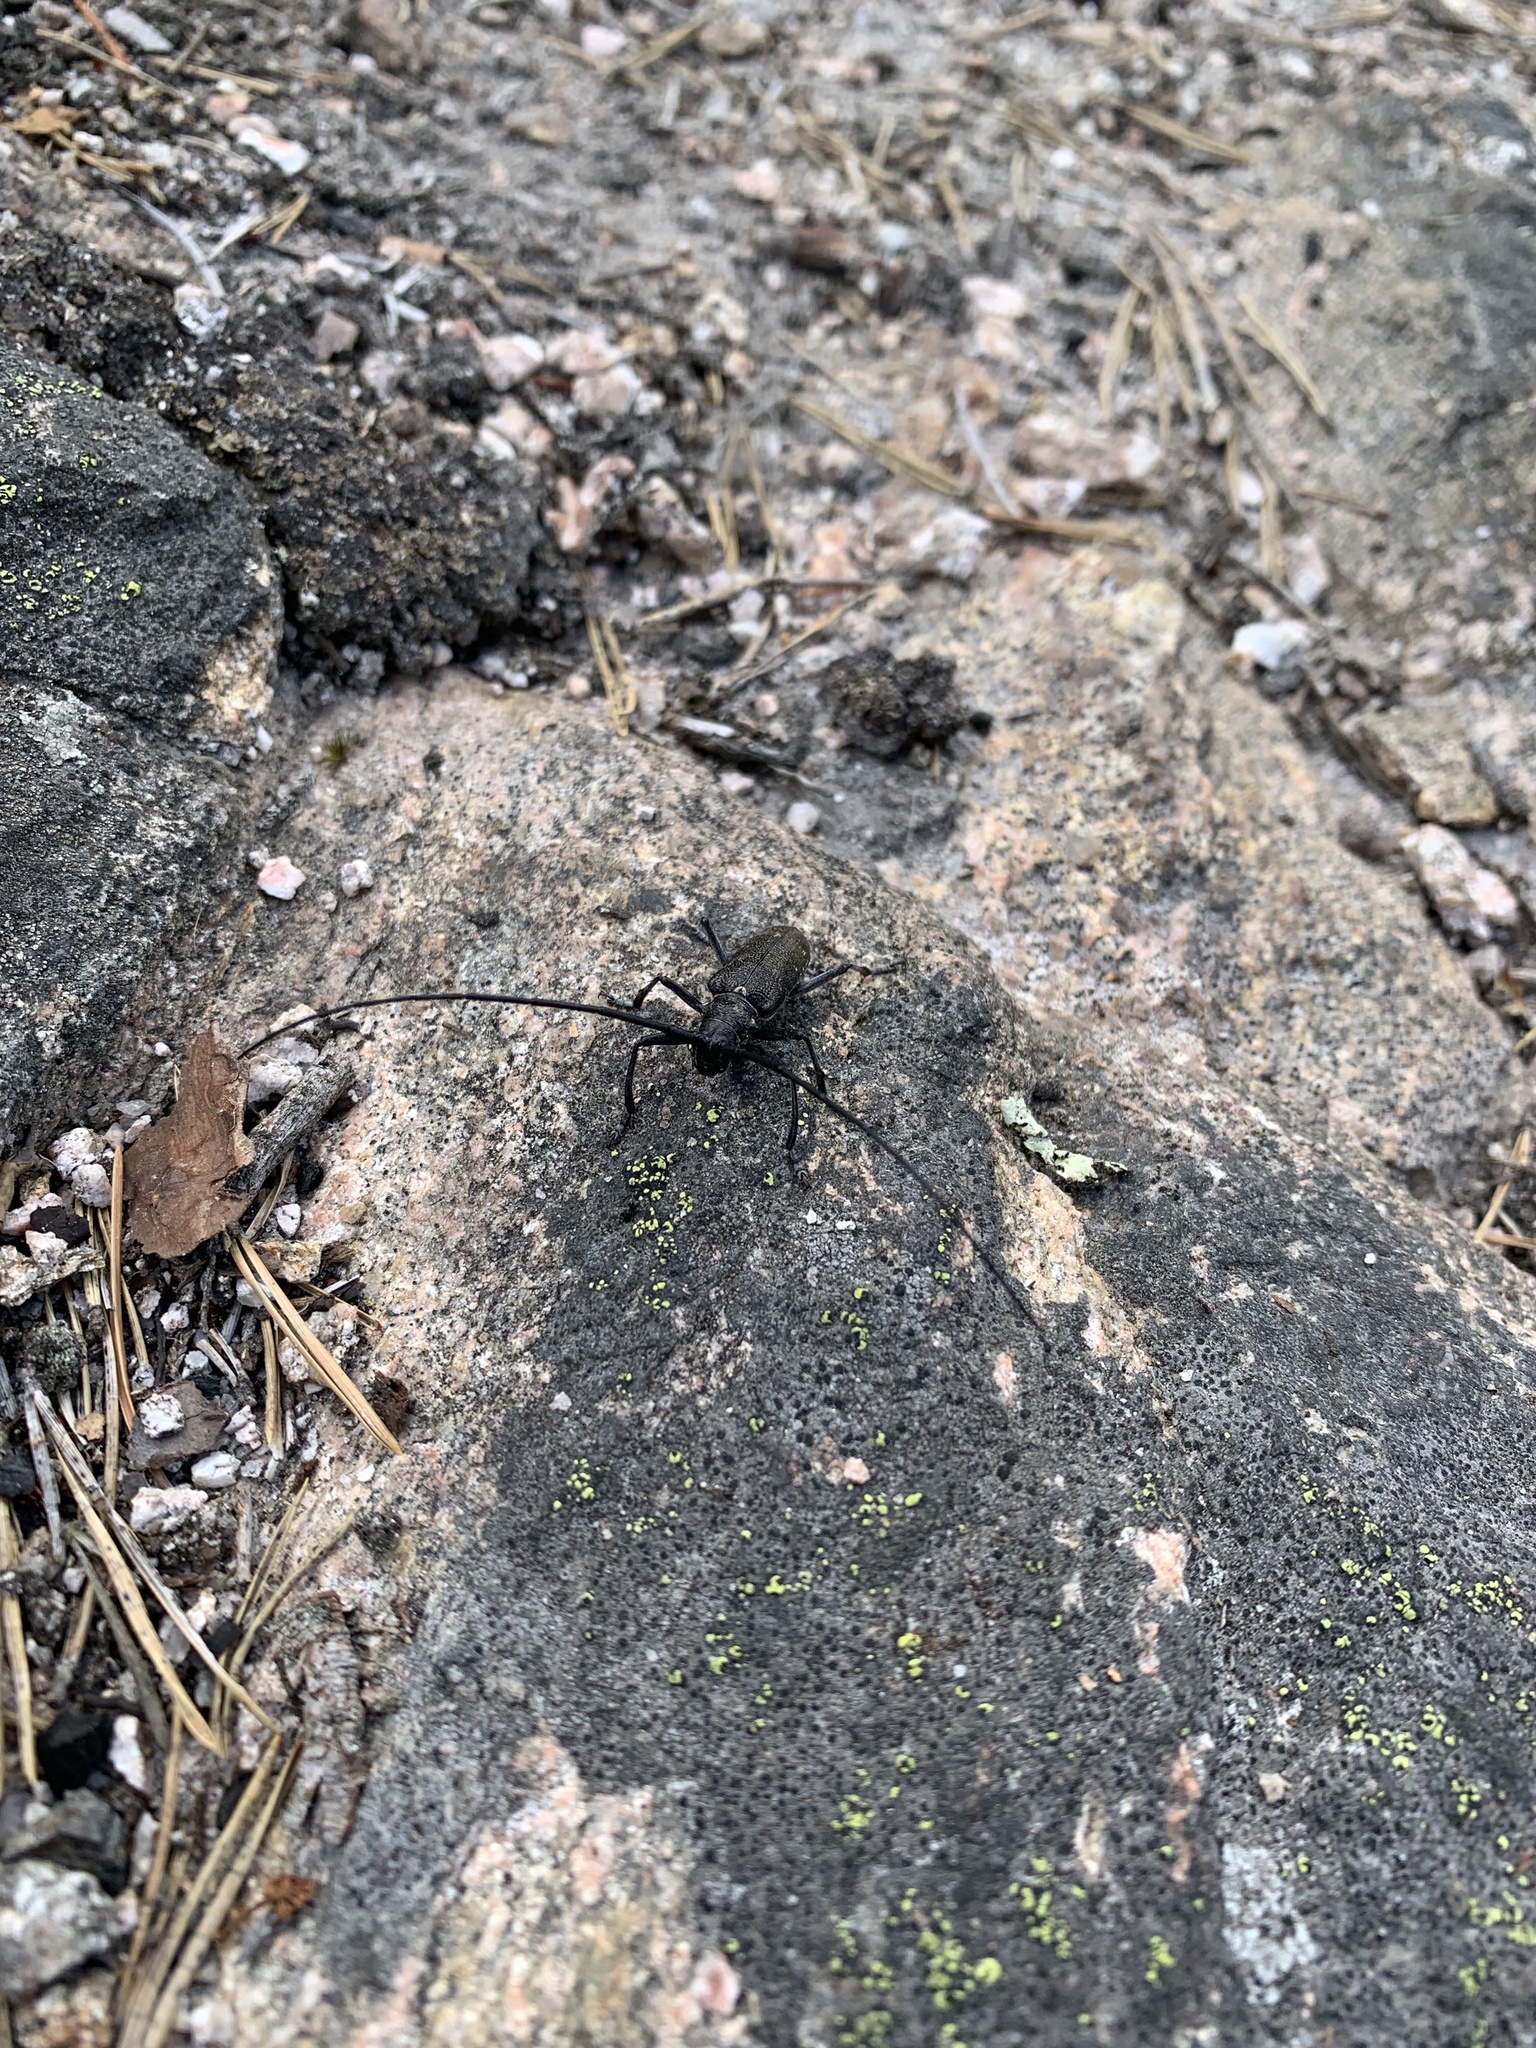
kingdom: Animalia
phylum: Arthropoda
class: Insecta
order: Coleoptera
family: Cerambycidae
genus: Monochamus
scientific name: Monochamus sutor
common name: Pine sawyer
